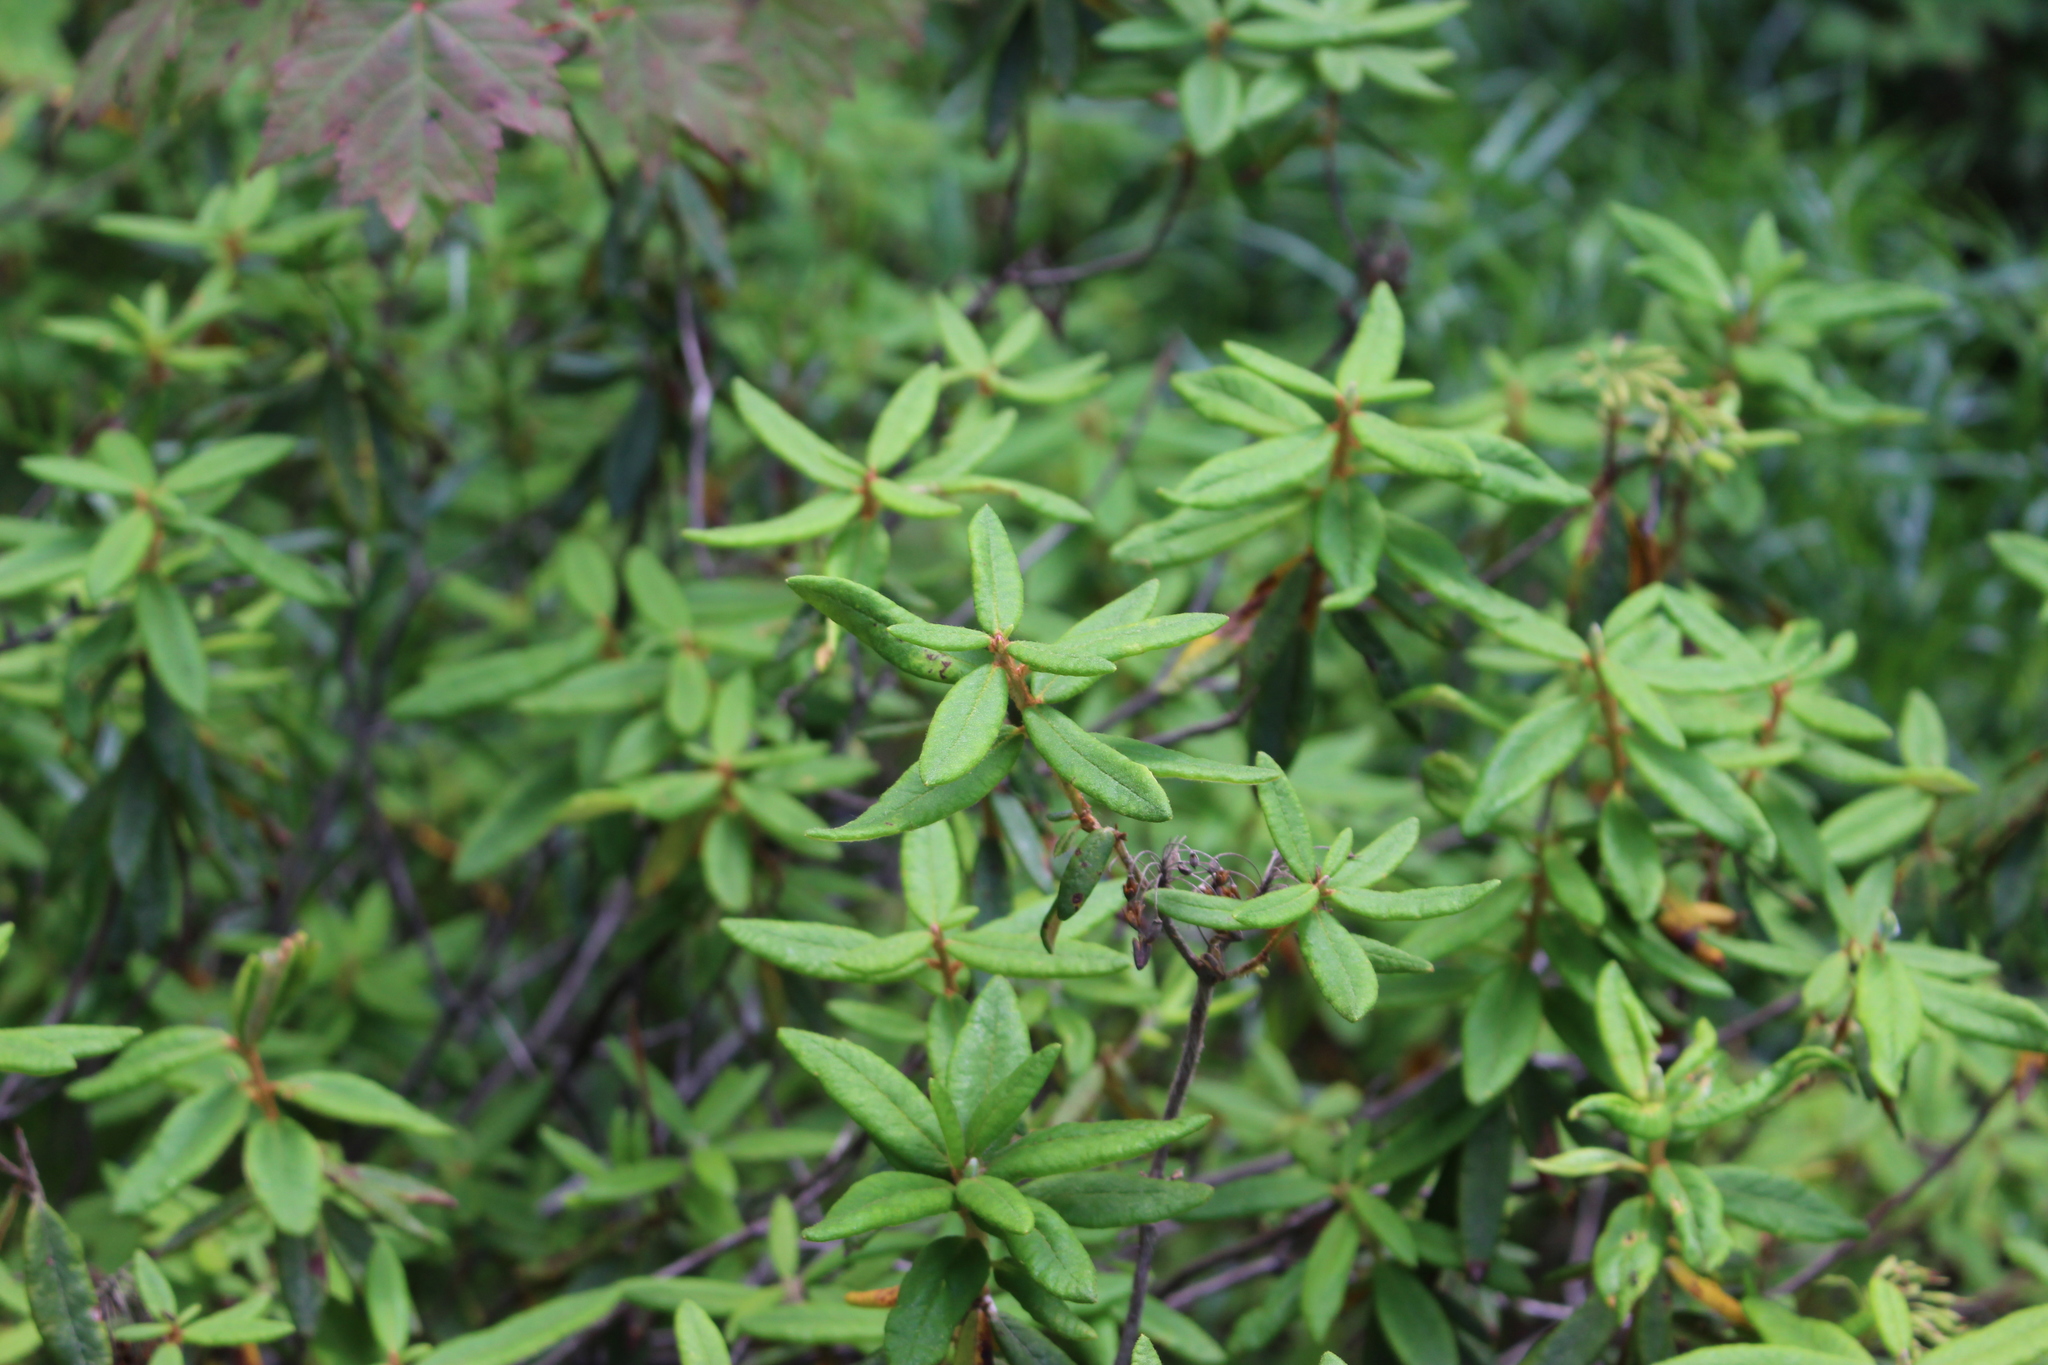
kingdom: Plantae
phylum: Tracheophyta
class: Magnoliopsida
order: Ericales
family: Ericaceae
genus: Rhododendron
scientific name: Rhododendron groenlandicum
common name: Bog labrador tea
